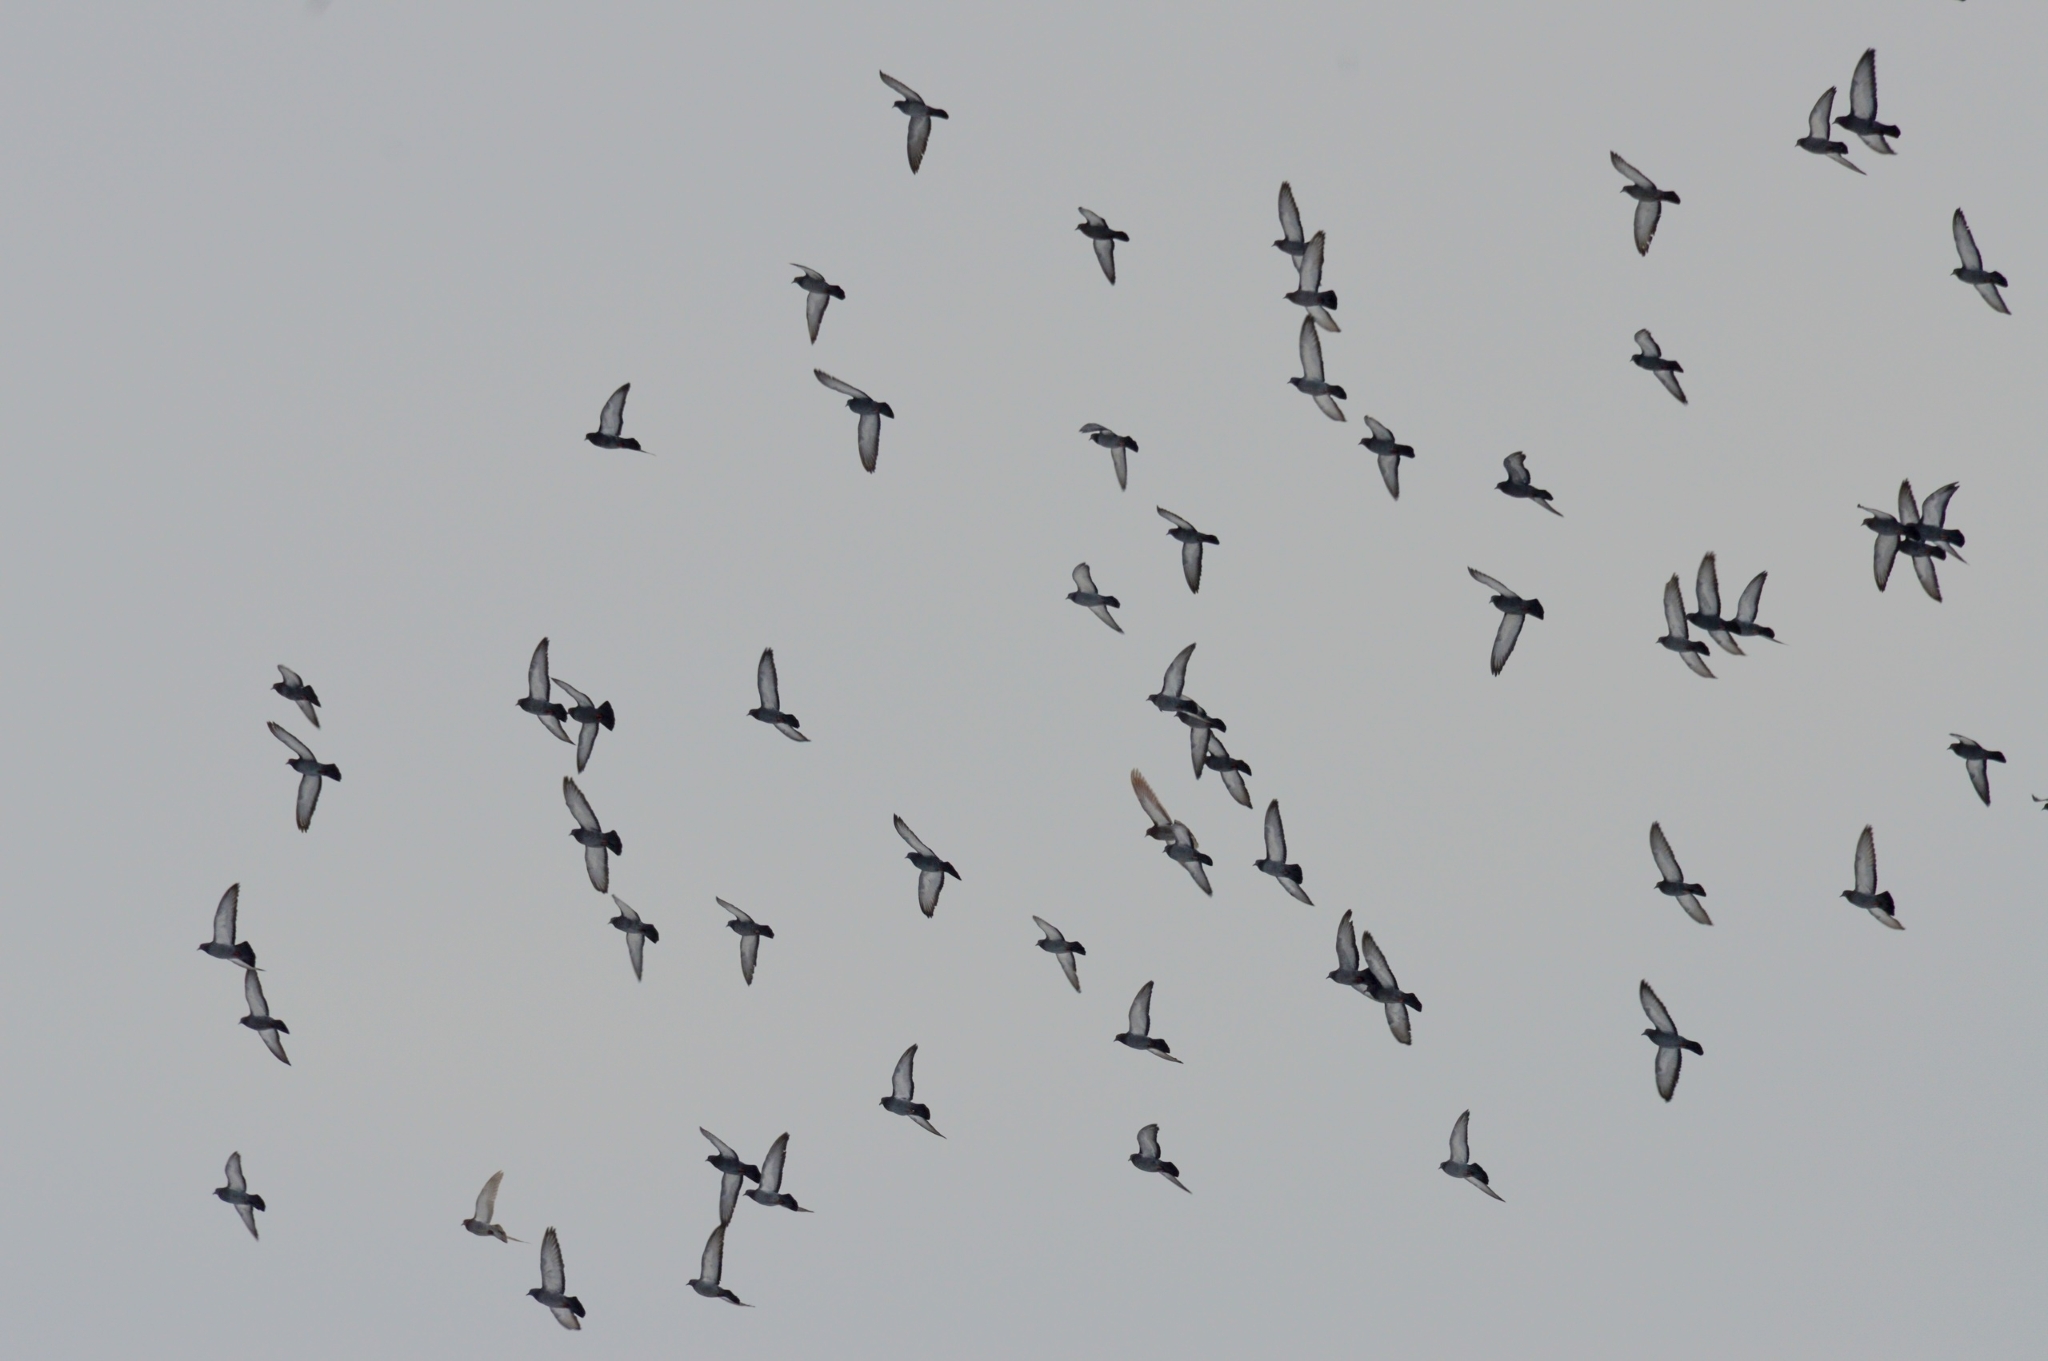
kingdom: Animalia
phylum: Chordata
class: Aves
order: Columbiformes
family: Columbidae
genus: Columba
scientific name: Columba livia
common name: Rock pigeon
